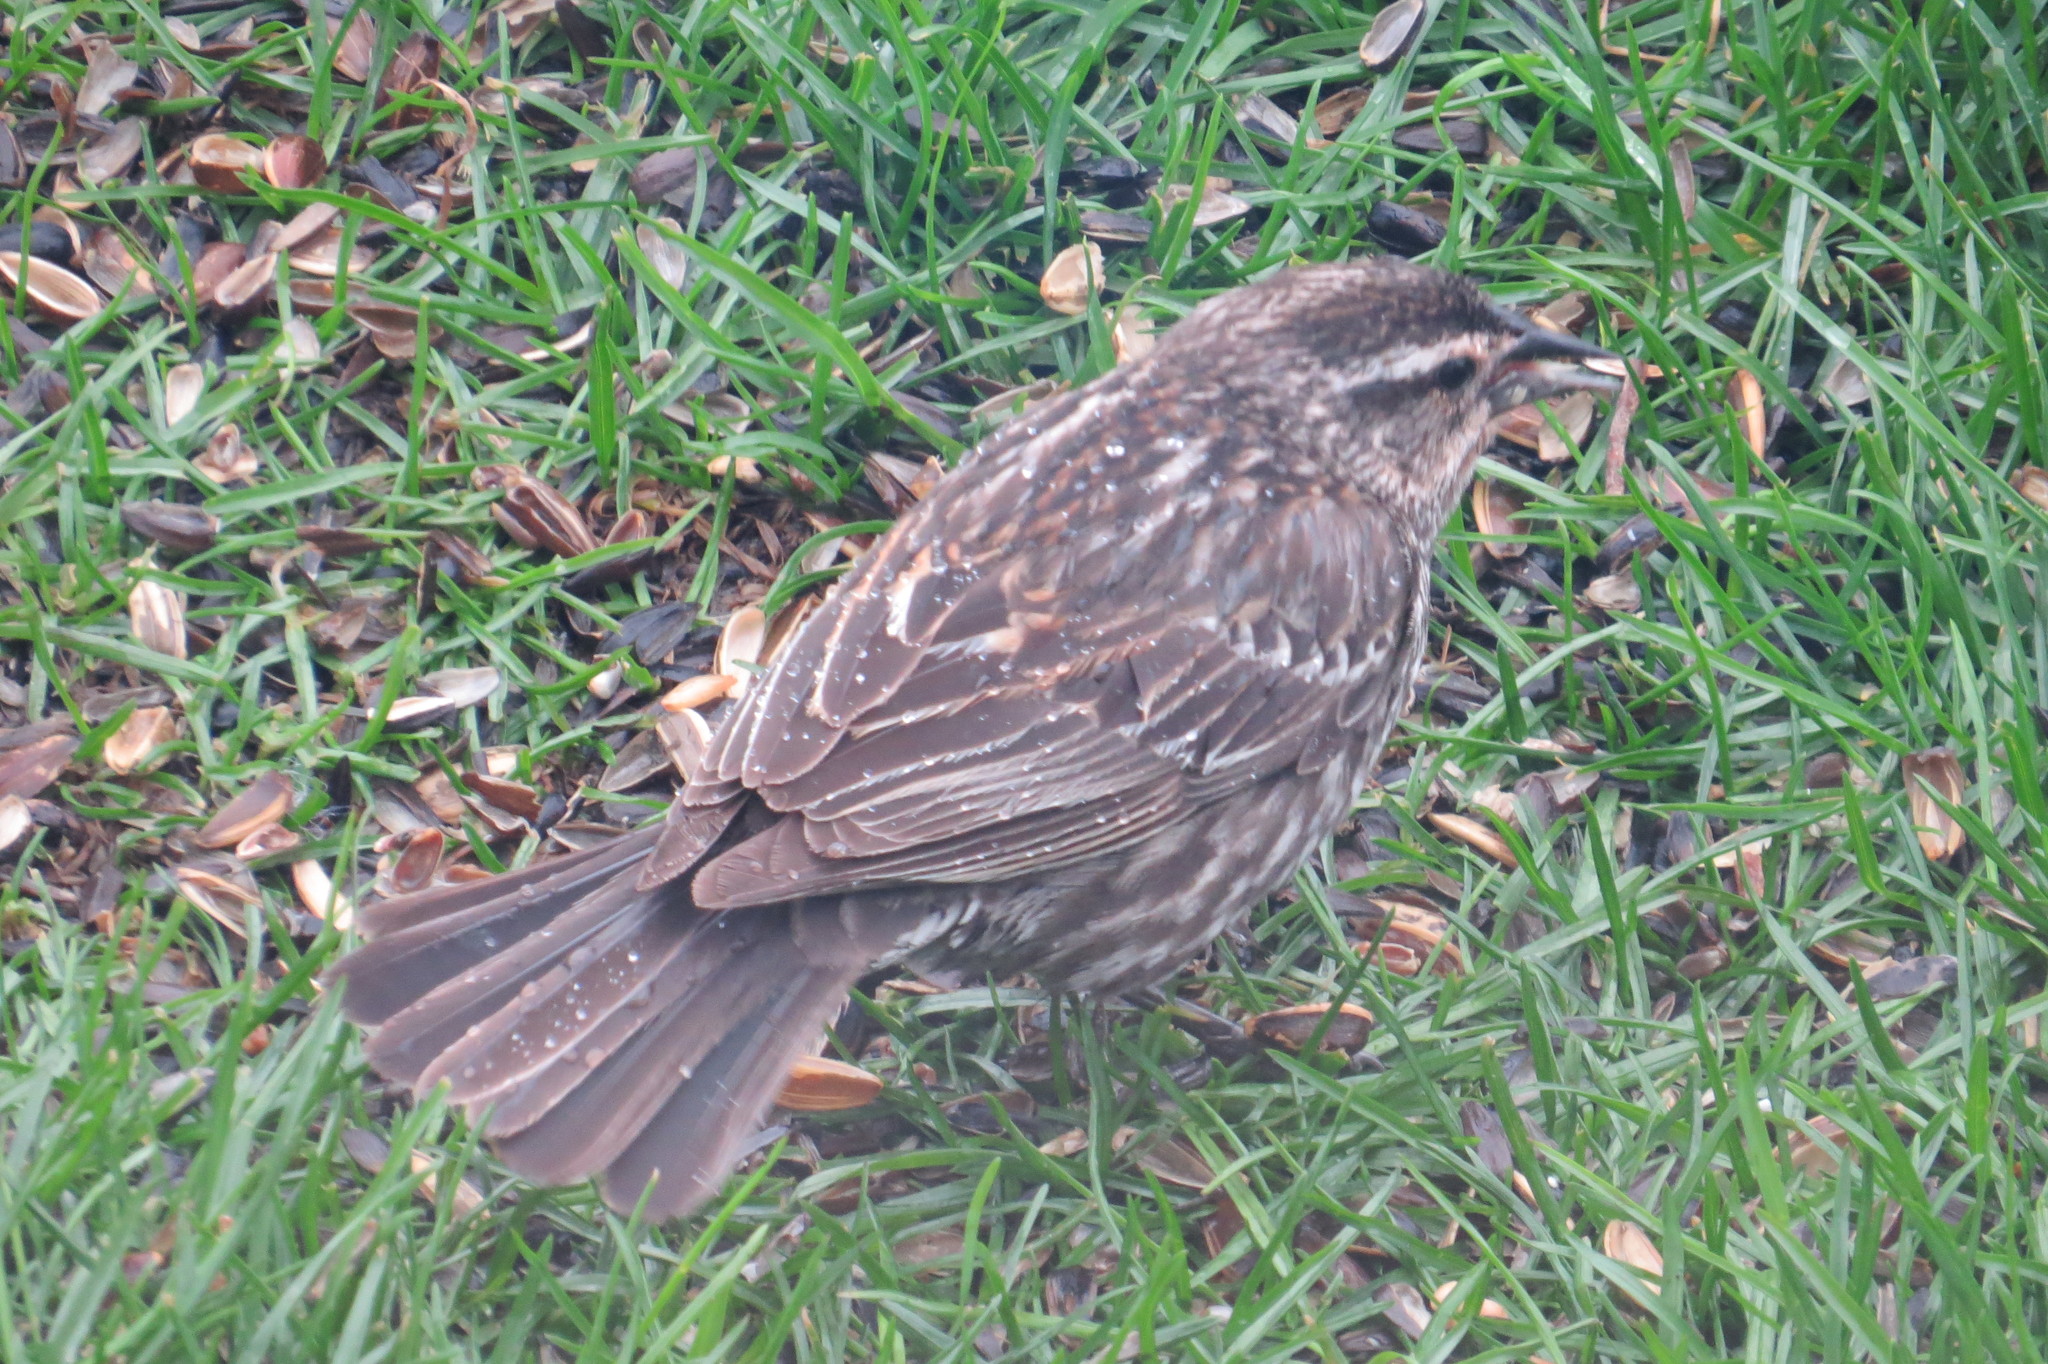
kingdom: Animalia
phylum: Chordata
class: Aves
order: Passeriformes
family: Icteridae
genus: Agelaius
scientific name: Agelaius phoeniceus
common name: Red-winged blackbird
